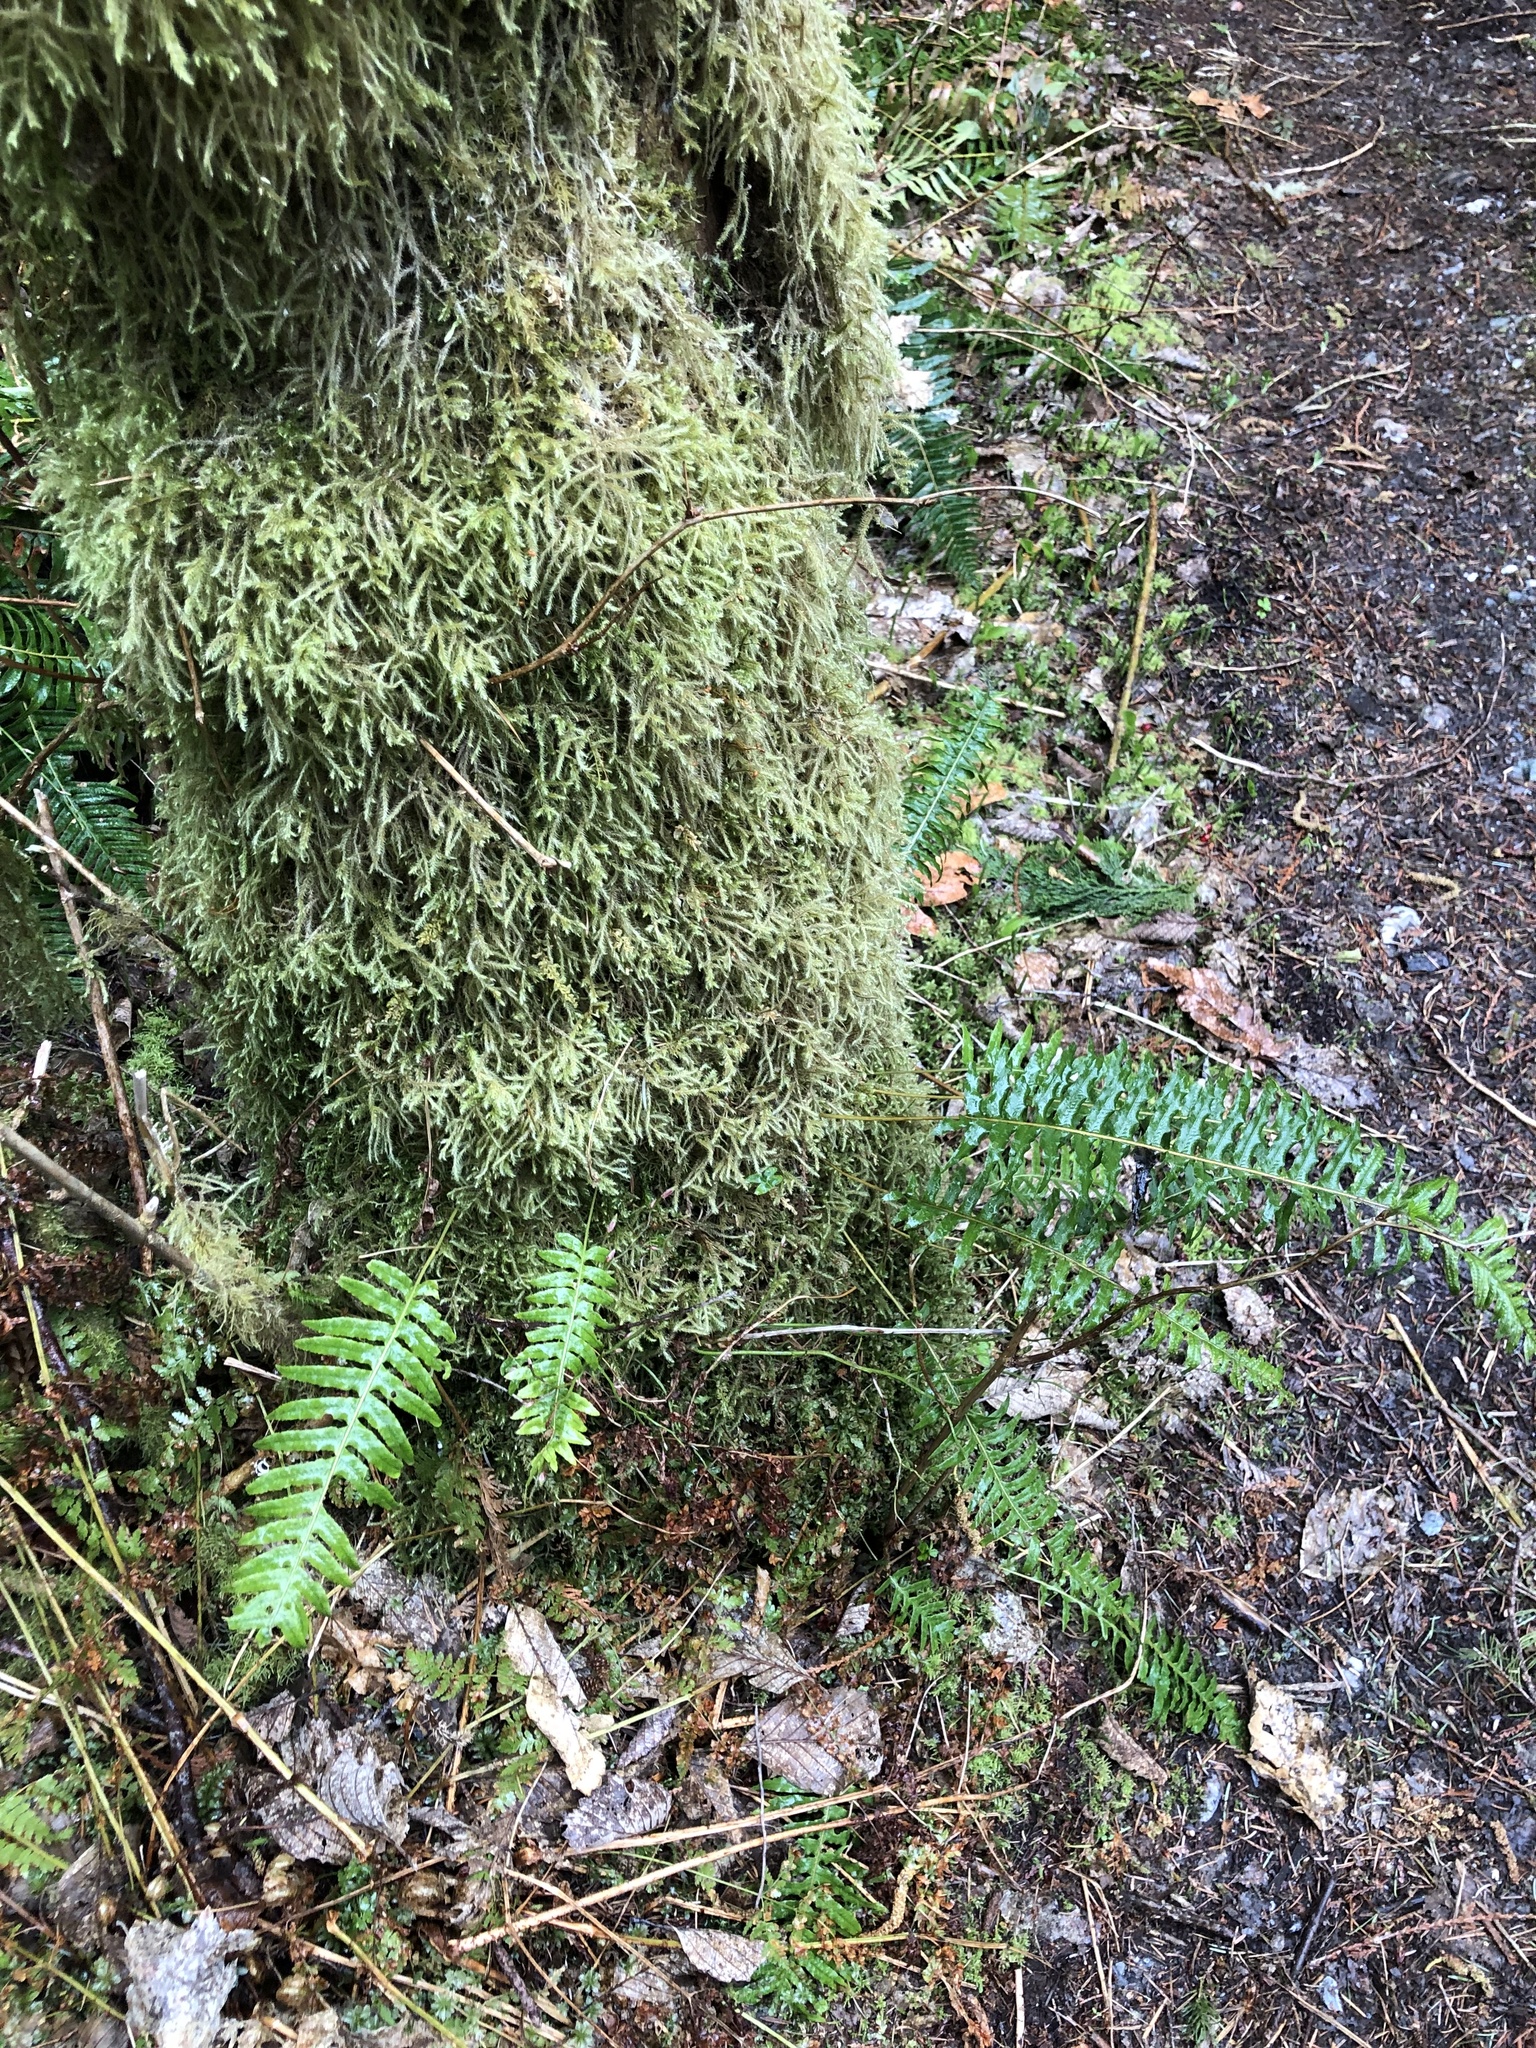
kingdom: Plantae
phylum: Tracheophyta
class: Polypodiopsida
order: Polypodiales
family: Polypodiaceae
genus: Polypodium
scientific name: Polypodium glycyrrhiza
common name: Licorice fern
